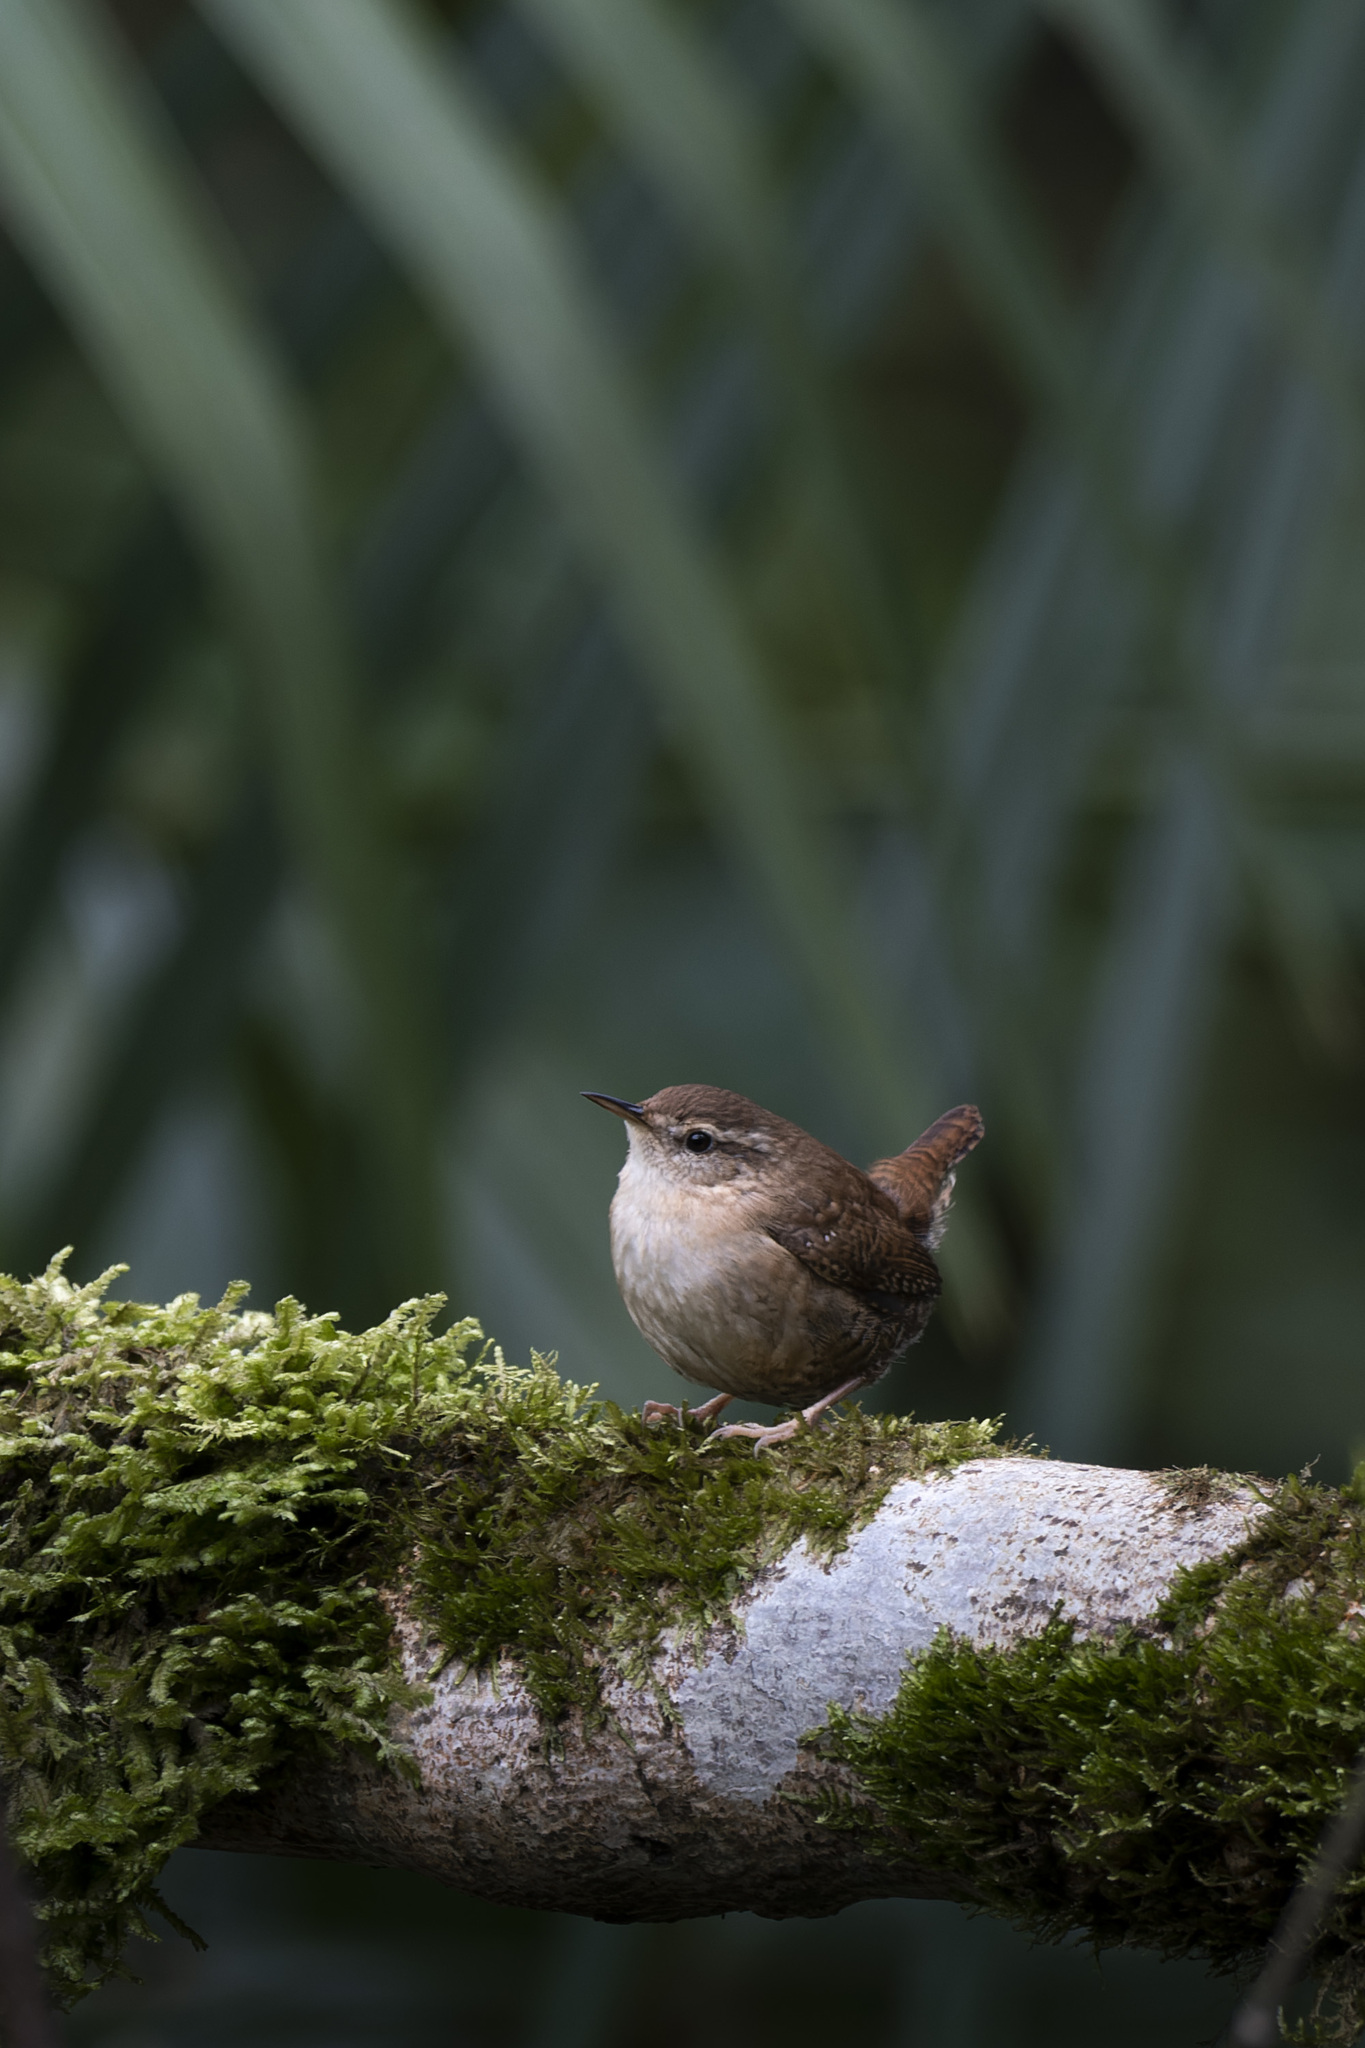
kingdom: Animalia
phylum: Chordata
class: Aves
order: Passeriformes
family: Troglodytidae
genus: Troglodytes
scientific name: Troglodytes troglodytes
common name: Eurasian wren
